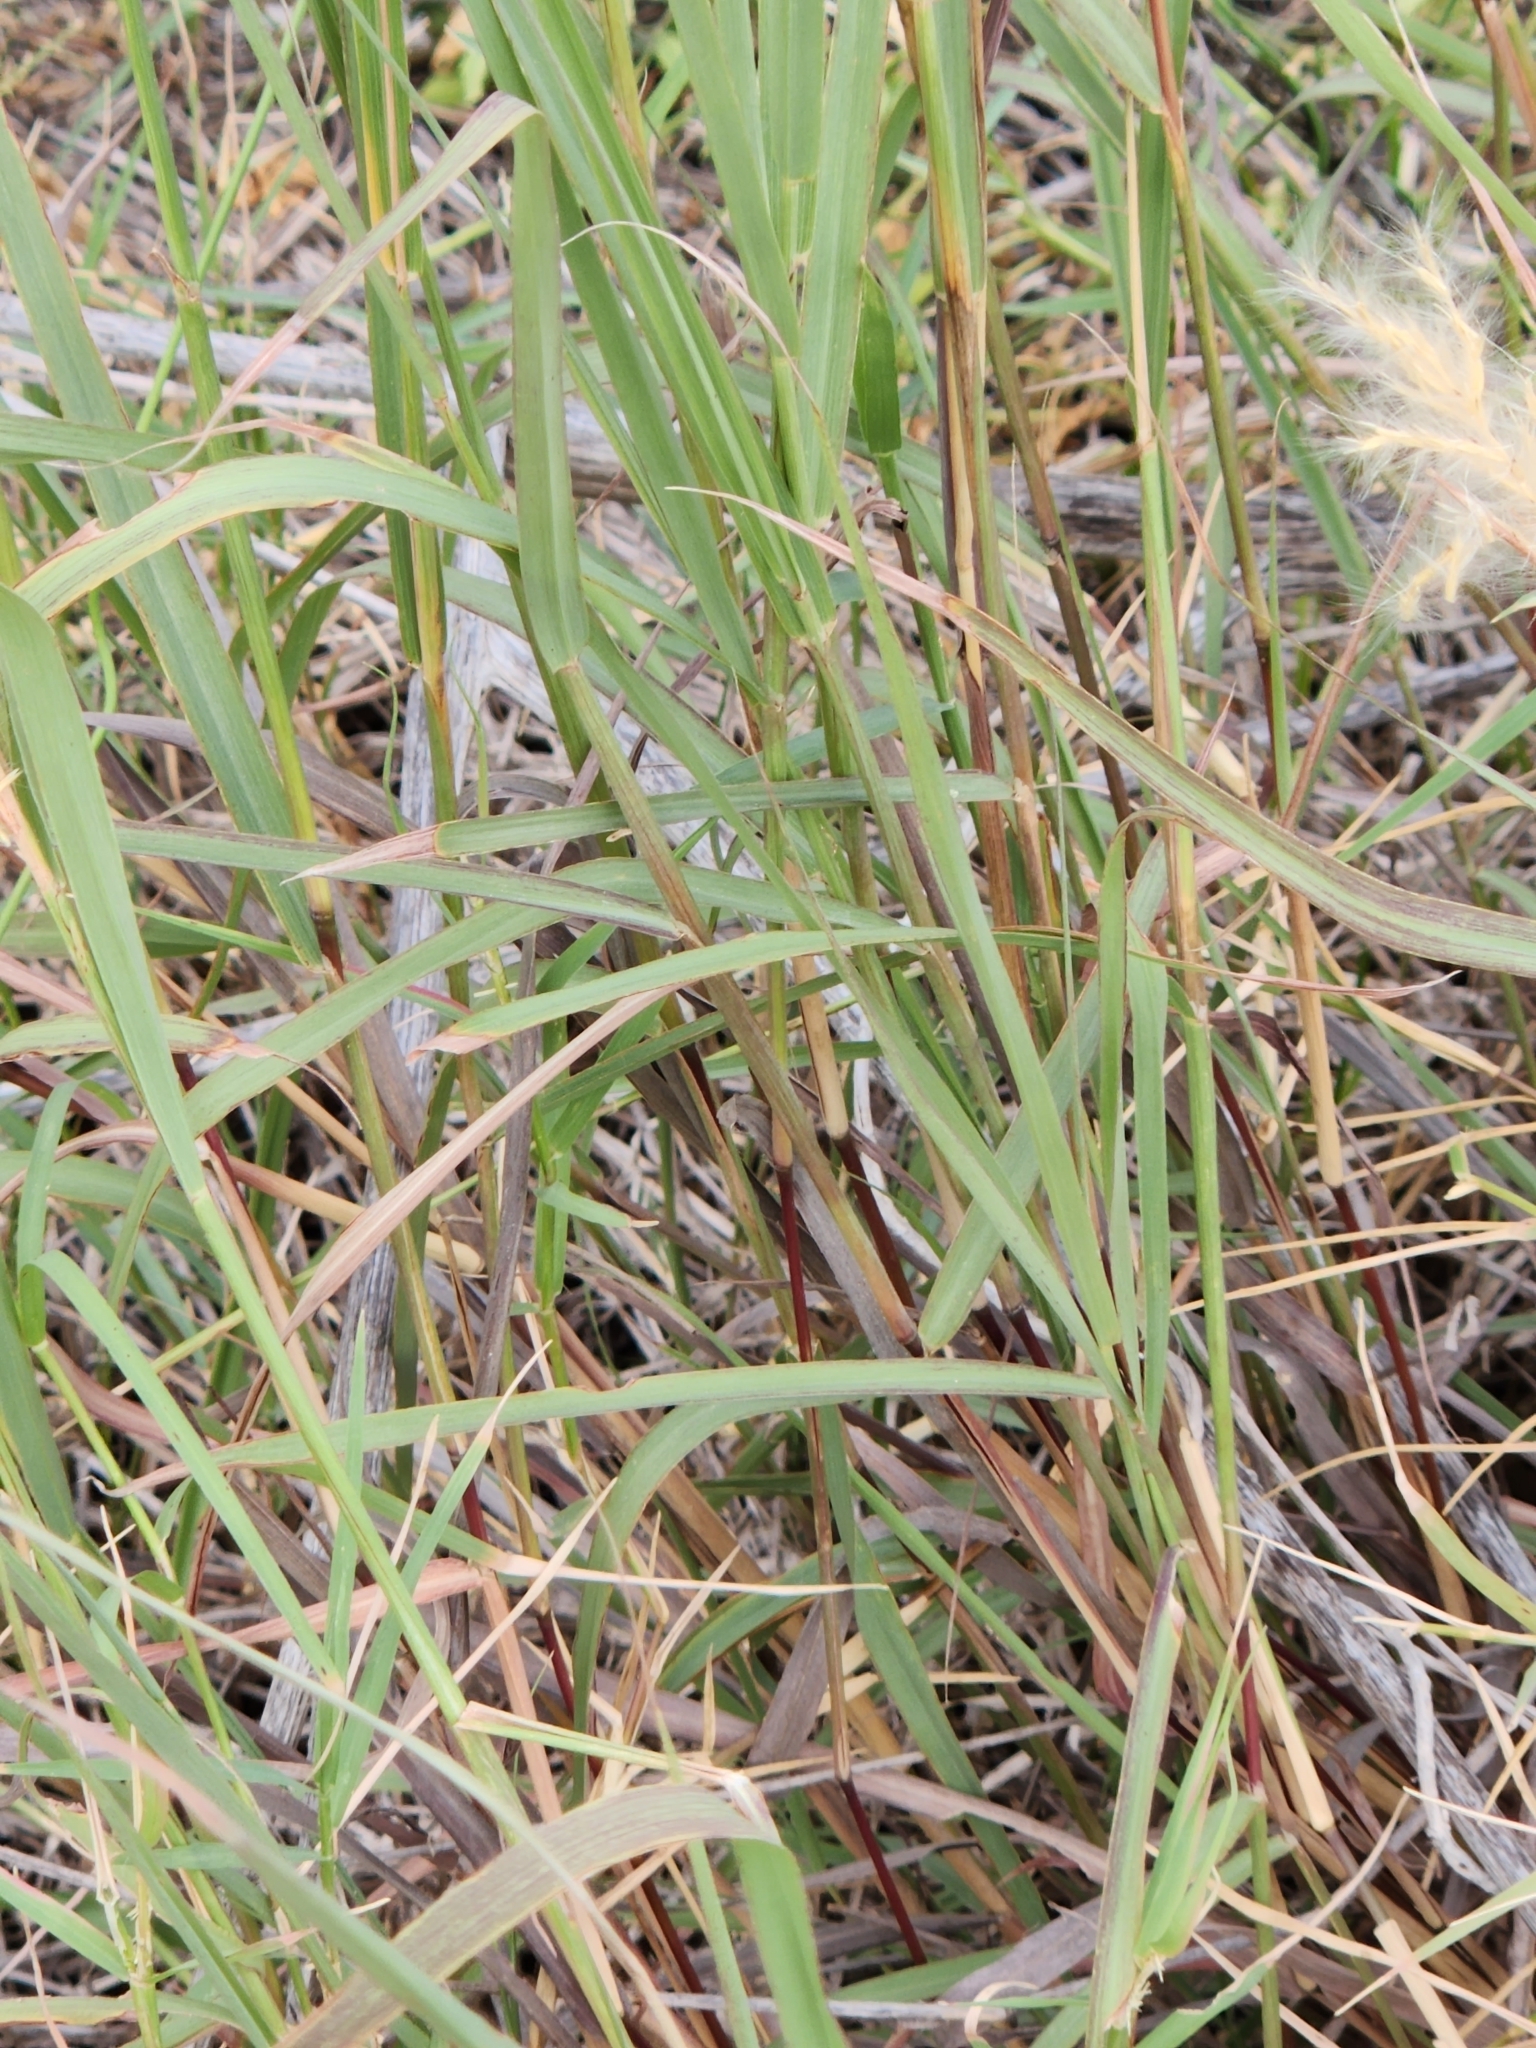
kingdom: Plantae
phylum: Tracheophyta
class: Liliopsida
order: Poales
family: Poaceae
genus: Bothriochloa
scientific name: Bothriochloa longipaniculata
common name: Longspike silver bluestem
